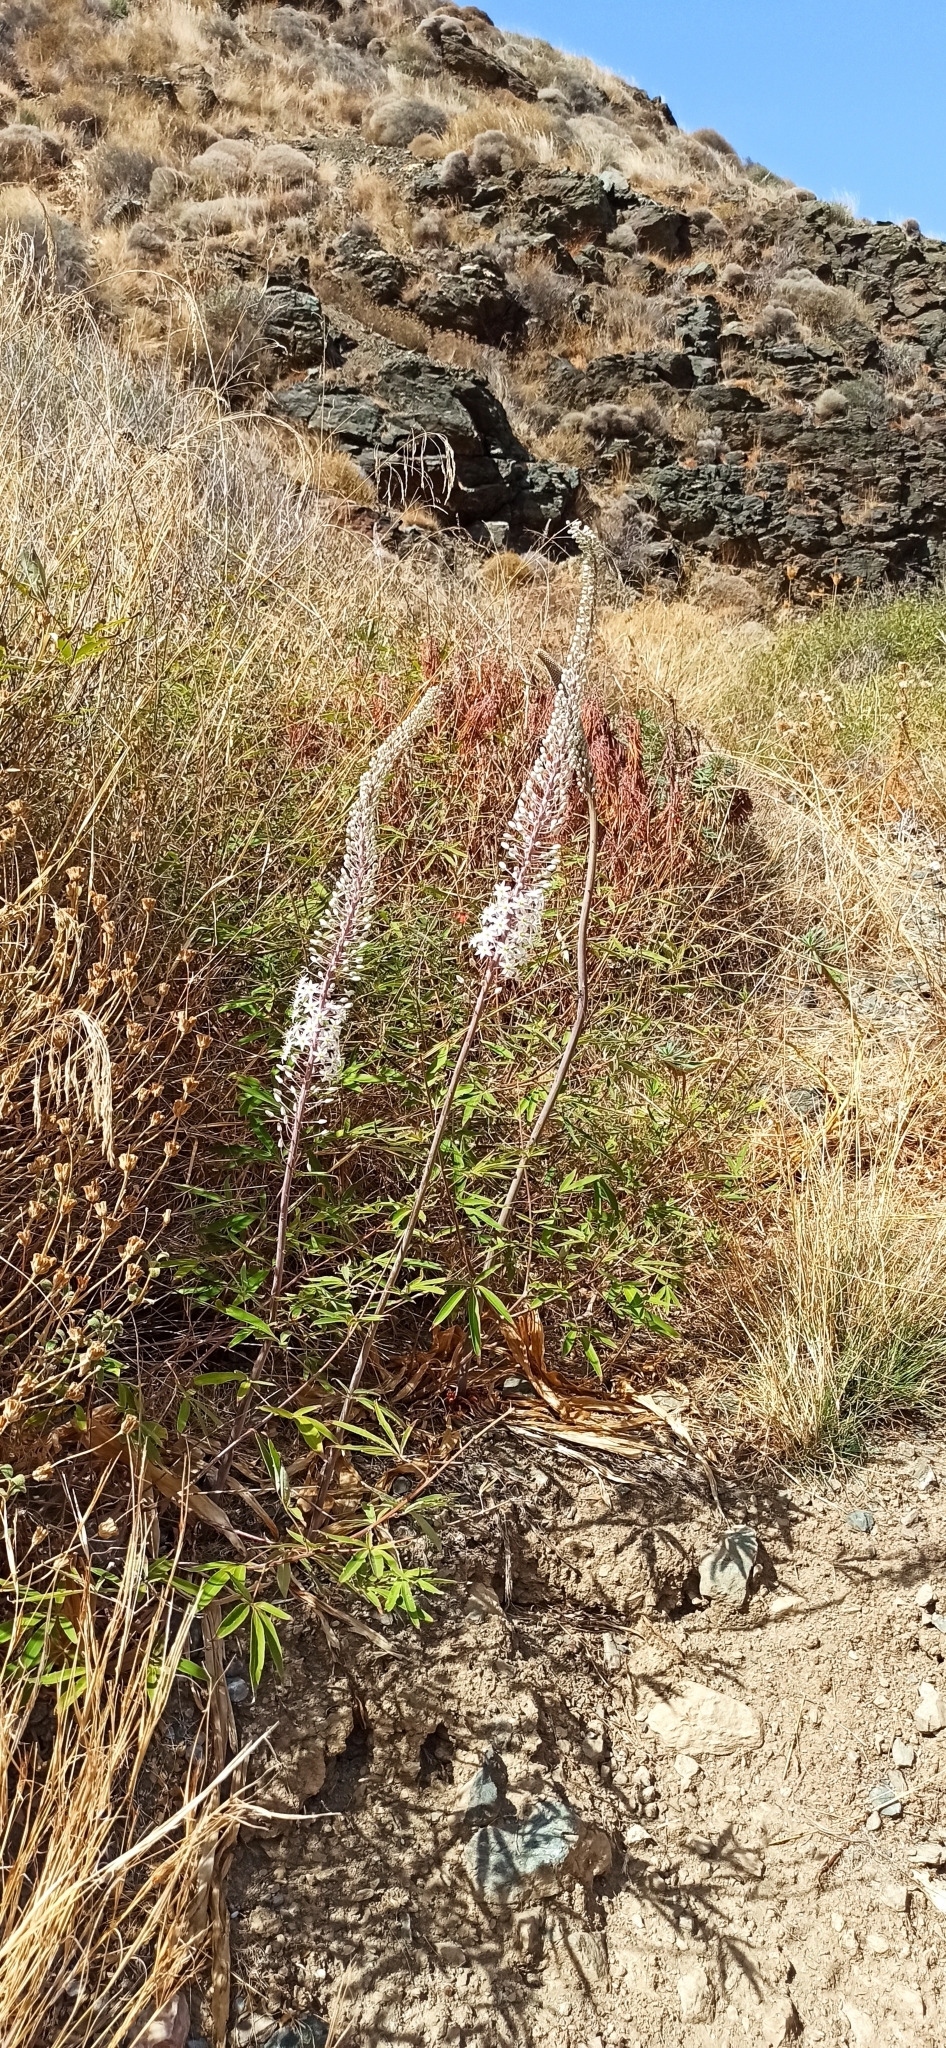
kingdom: Plantae
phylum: Tracheophyta
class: Liliopsida
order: Asparagales
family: Asparagaceae
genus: Drimia
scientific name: Drimia numidica
